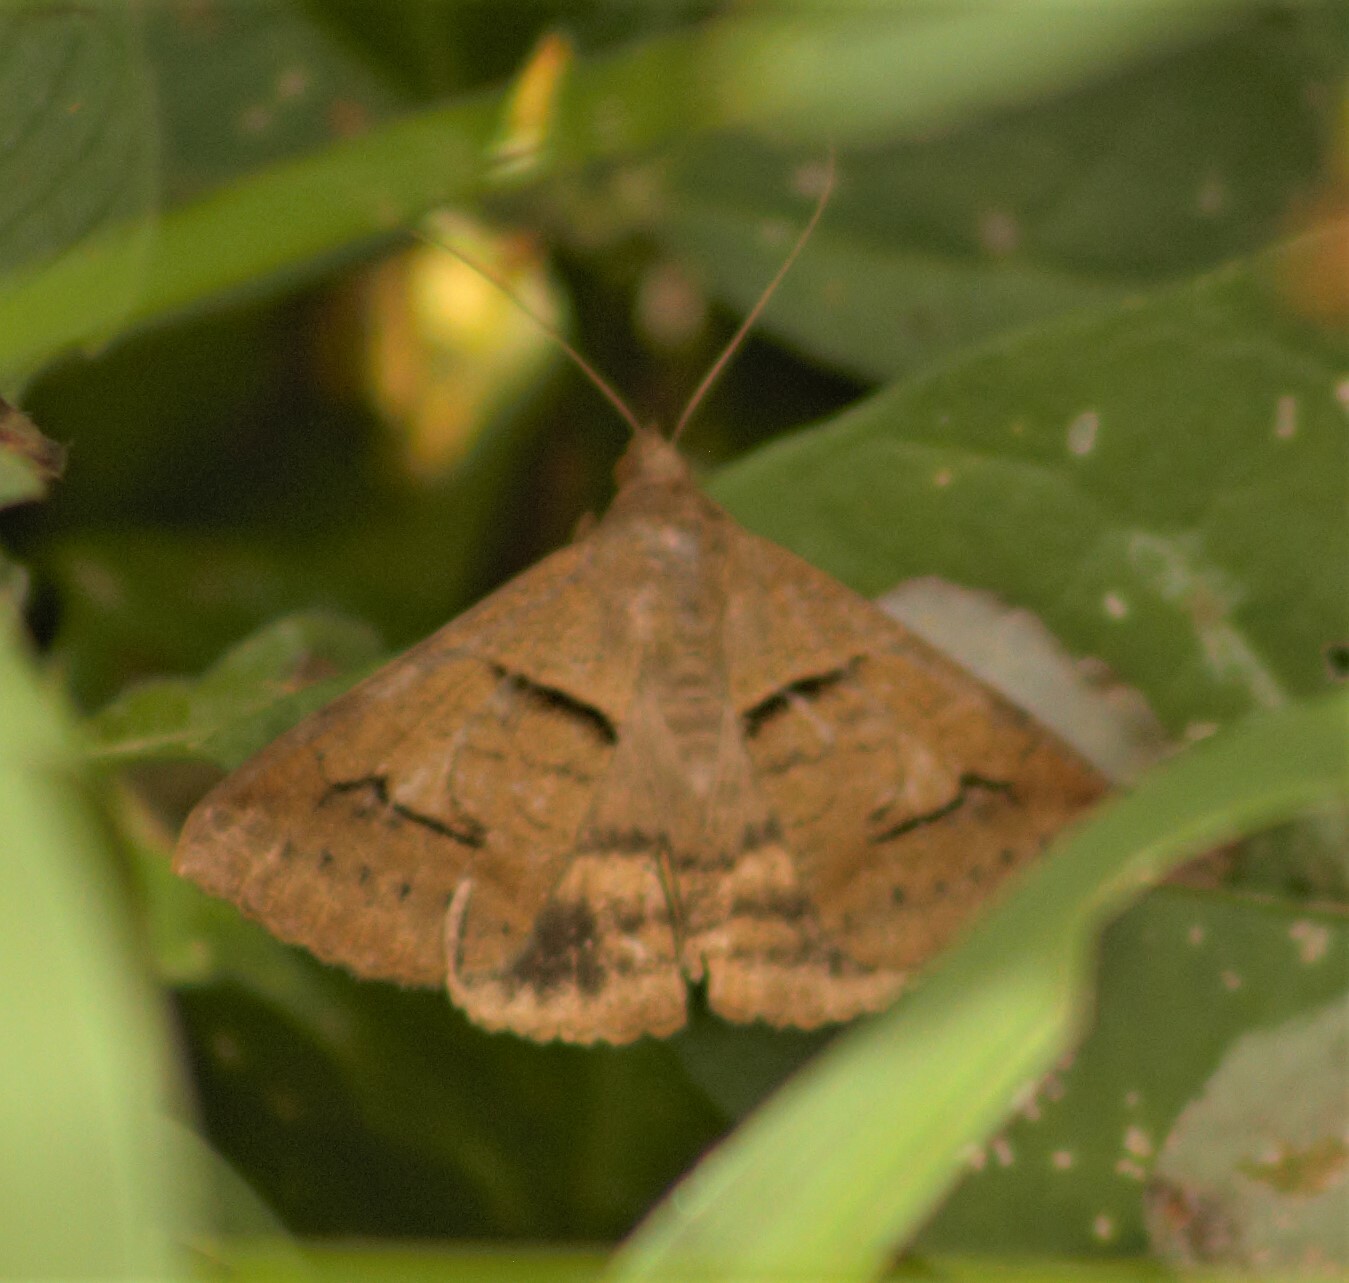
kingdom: Animalia
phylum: Arthropoda
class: Insecta
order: Lepidoptera
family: Erebidae
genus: Mocis
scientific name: Mocis trifasciata
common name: Triple-barred
